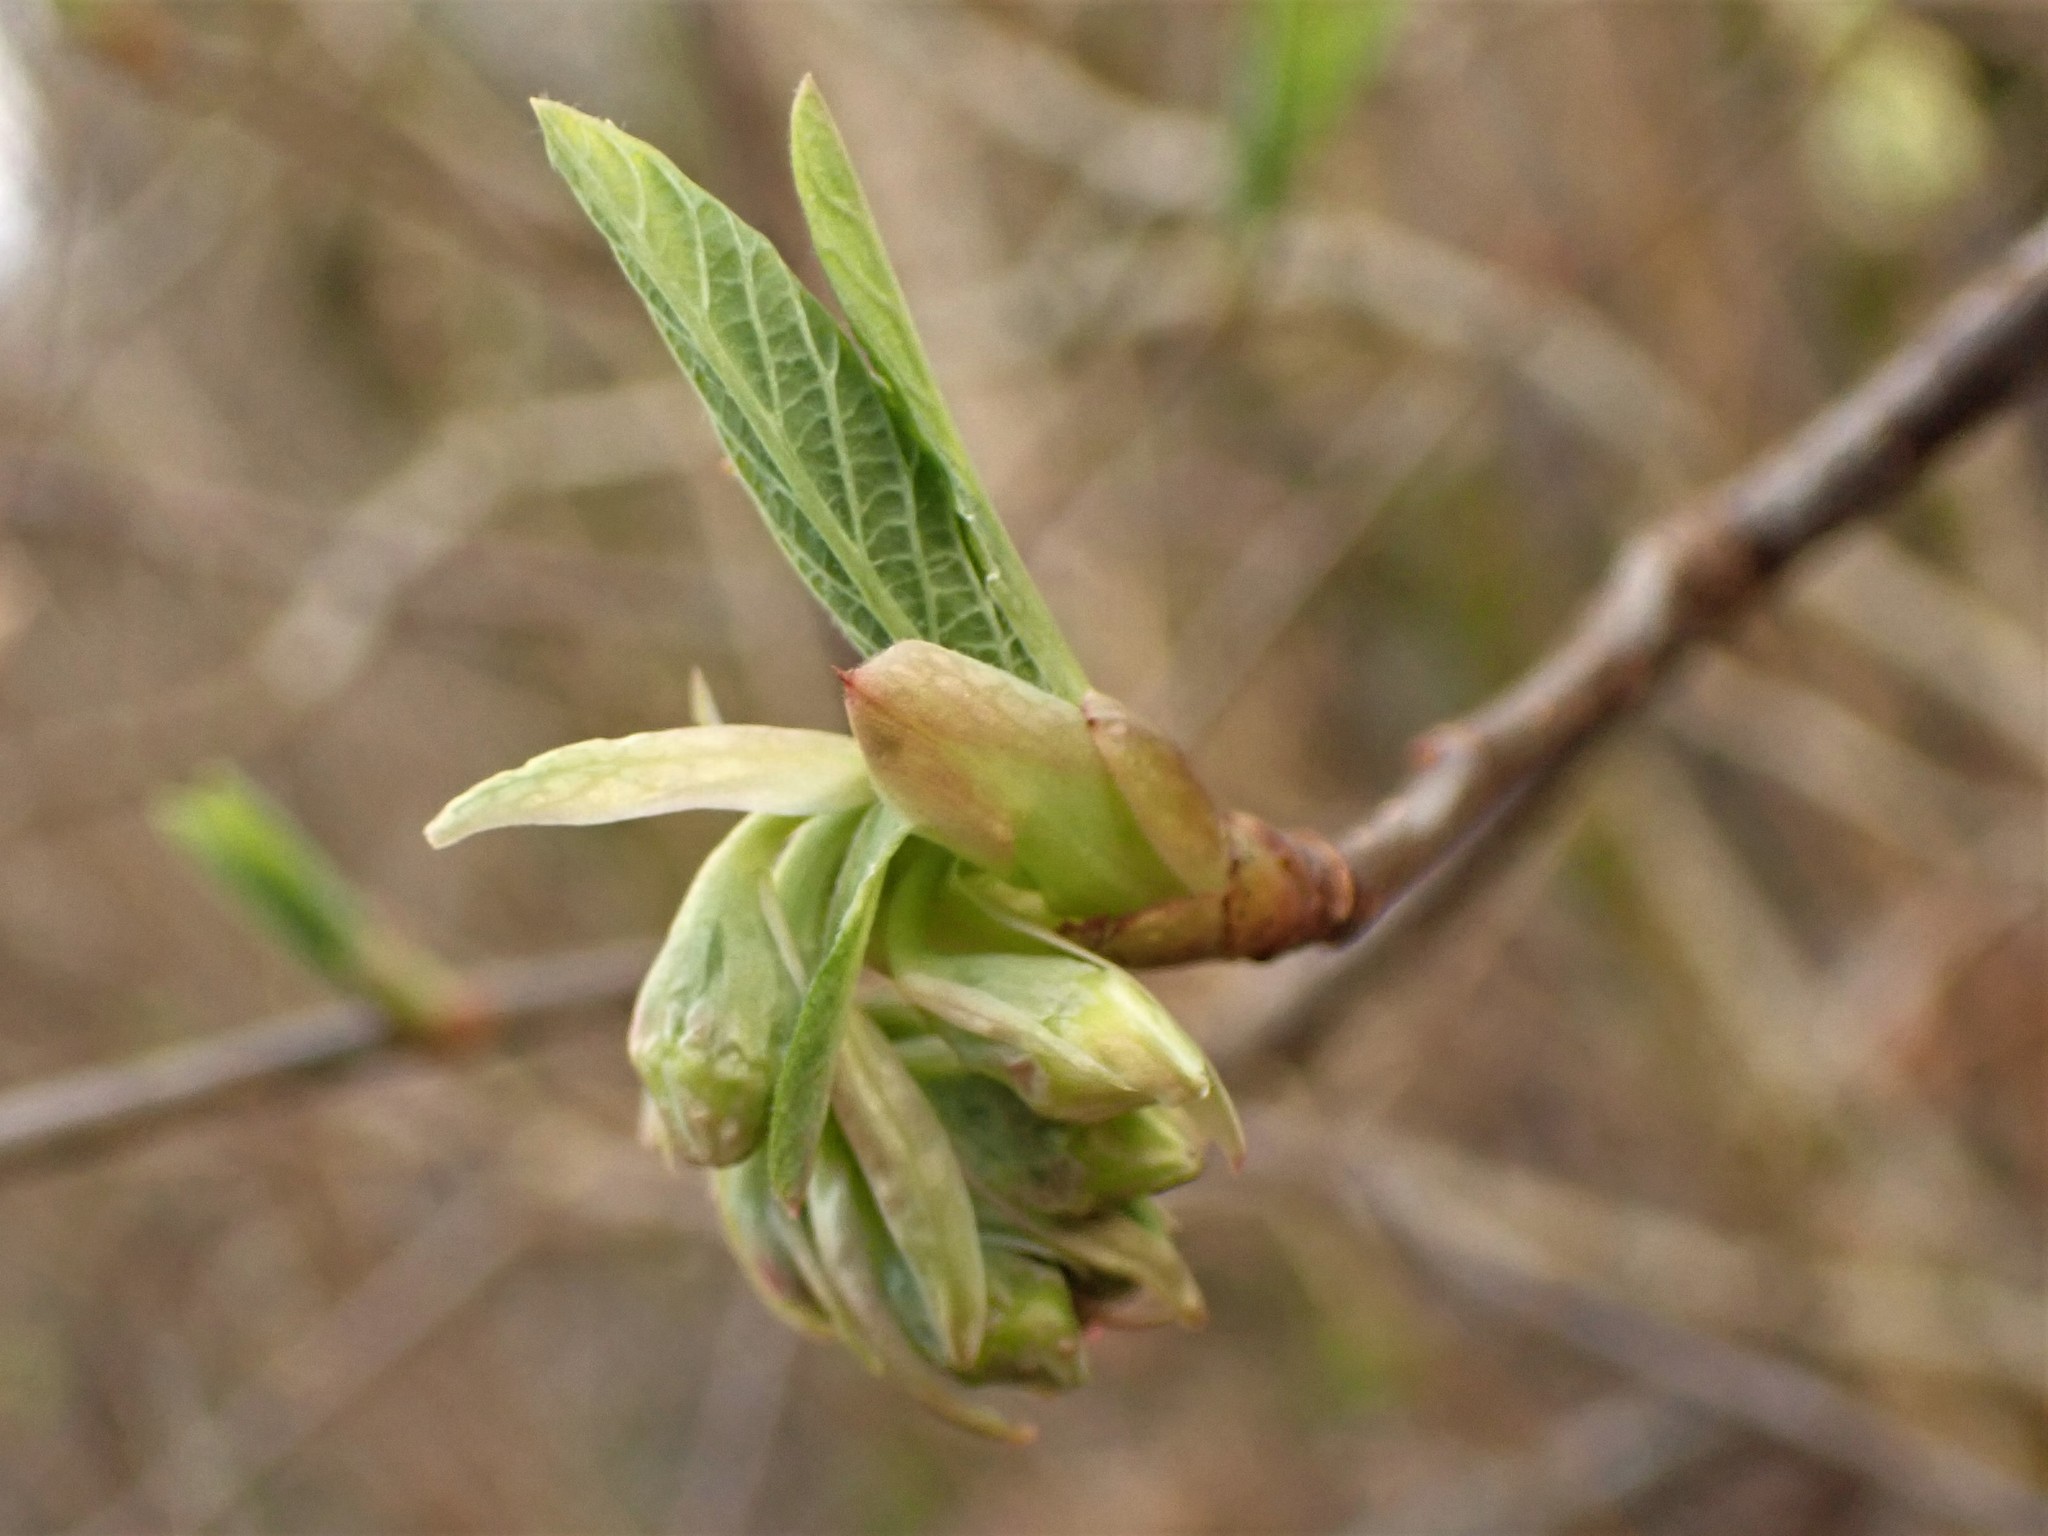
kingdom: Plantae
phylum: Tracheophyta
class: Magnoliopsida
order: Rosales
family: Rosaceae
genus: Oemleria
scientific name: Oemleria cerasiformis
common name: Osoberry
